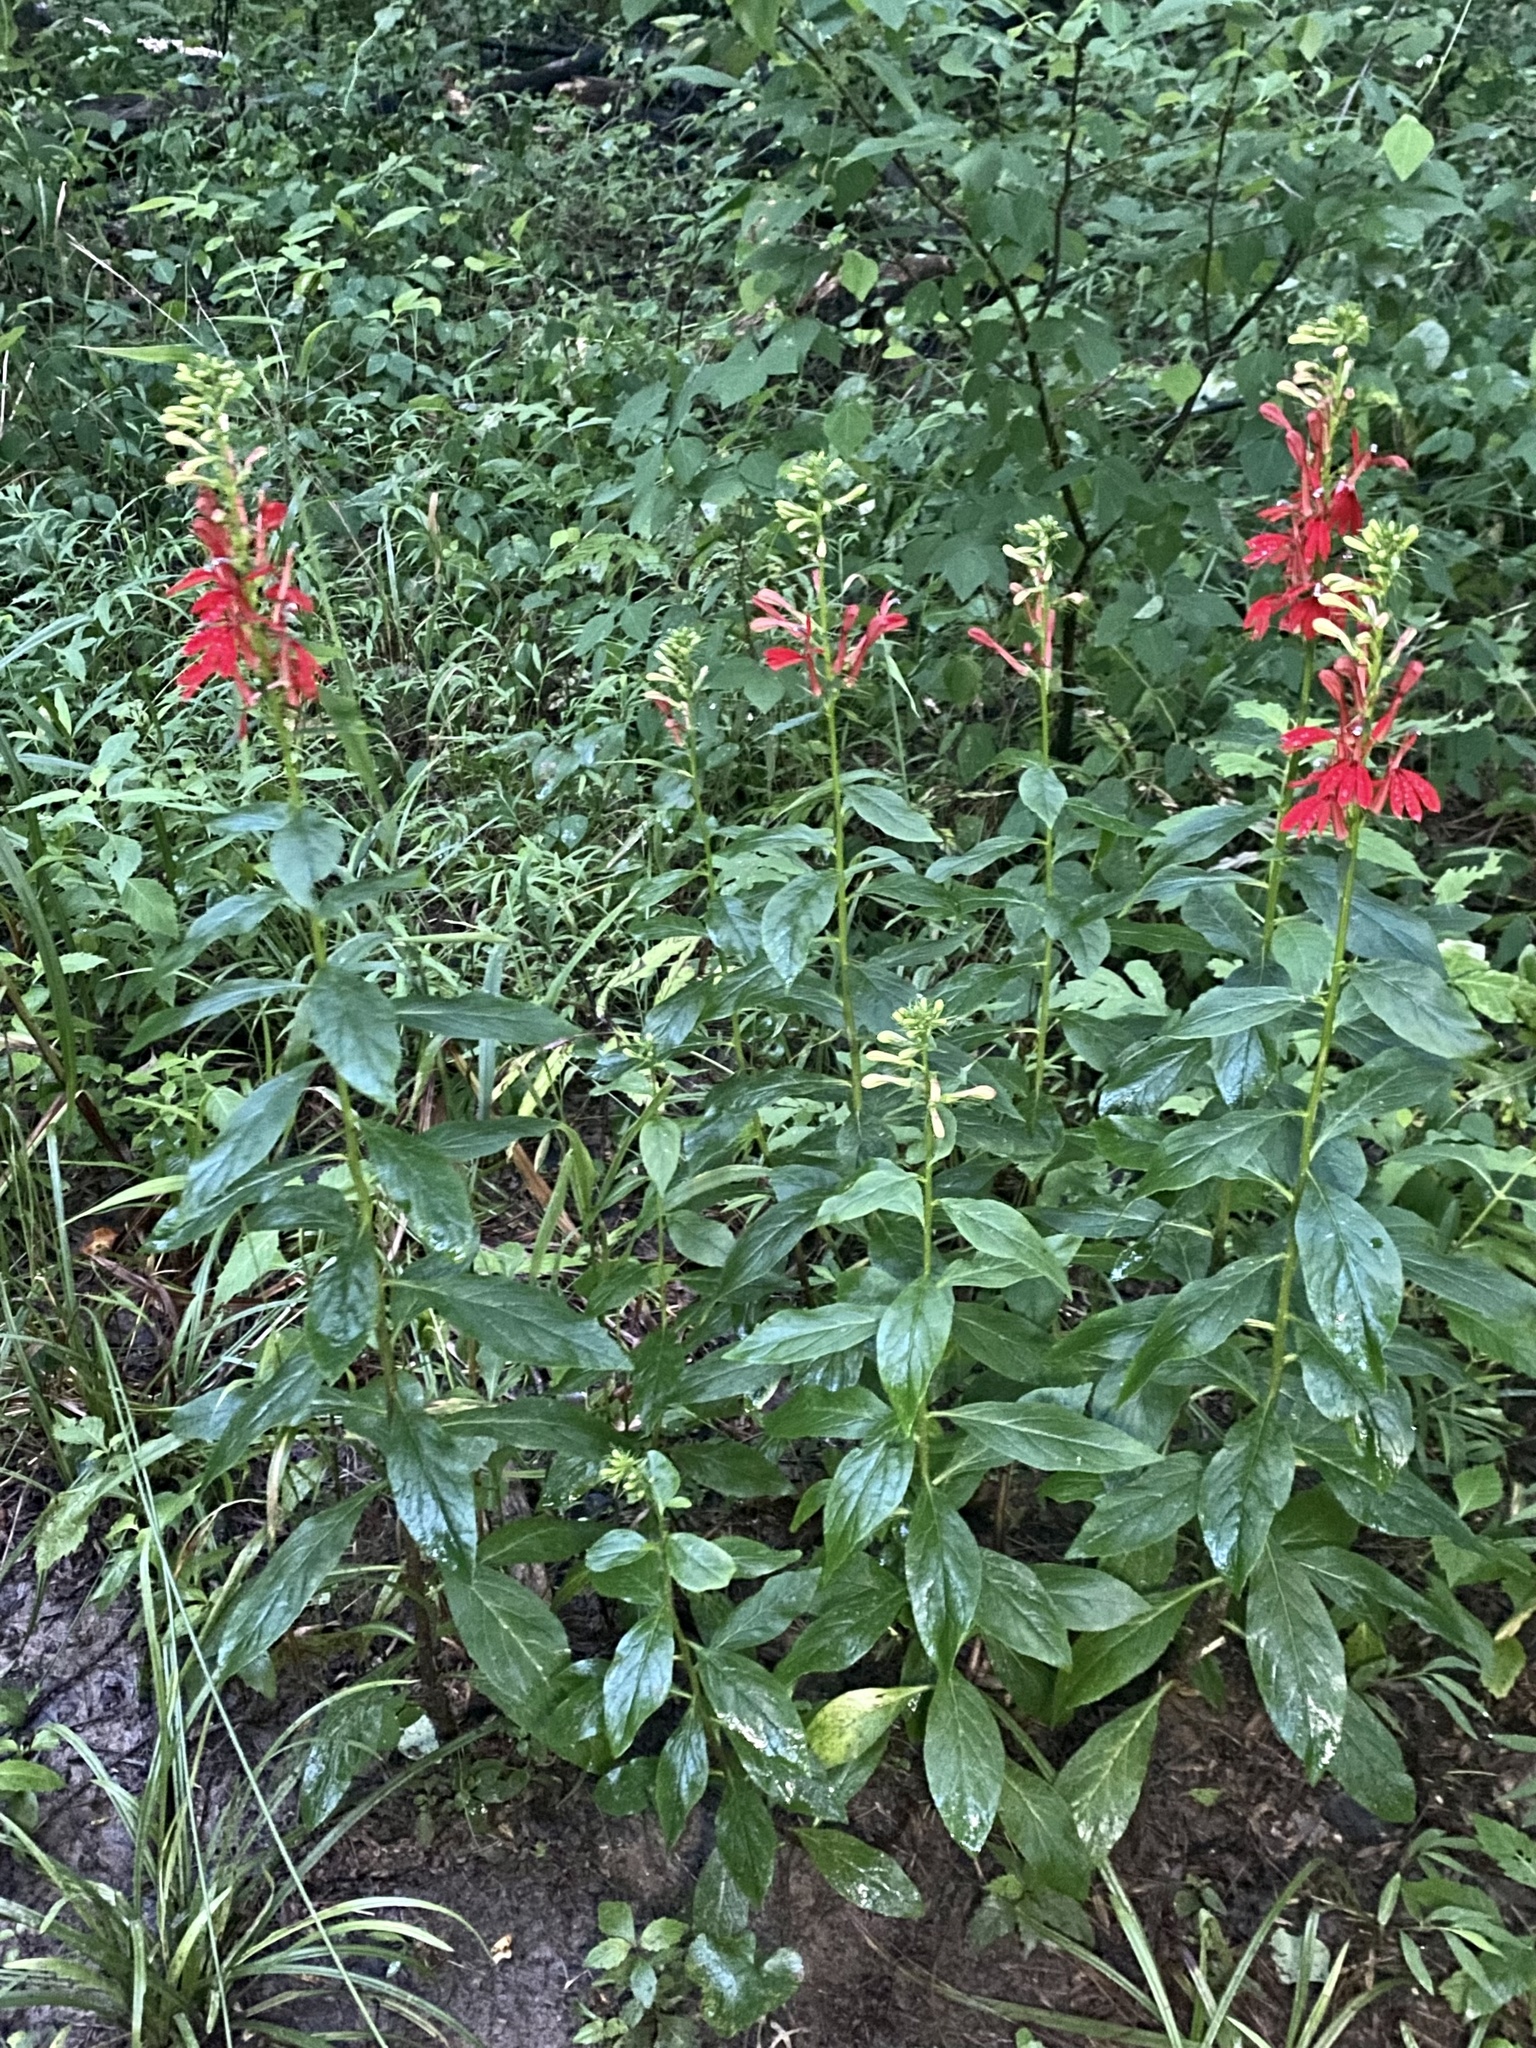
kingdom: Plantae
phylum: Tracheophyta
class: Magnoliopsida
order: Asterales
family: Campanulaceae
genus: Lobelia
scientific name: Lobelia cardinalis
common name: Cardinal flower
